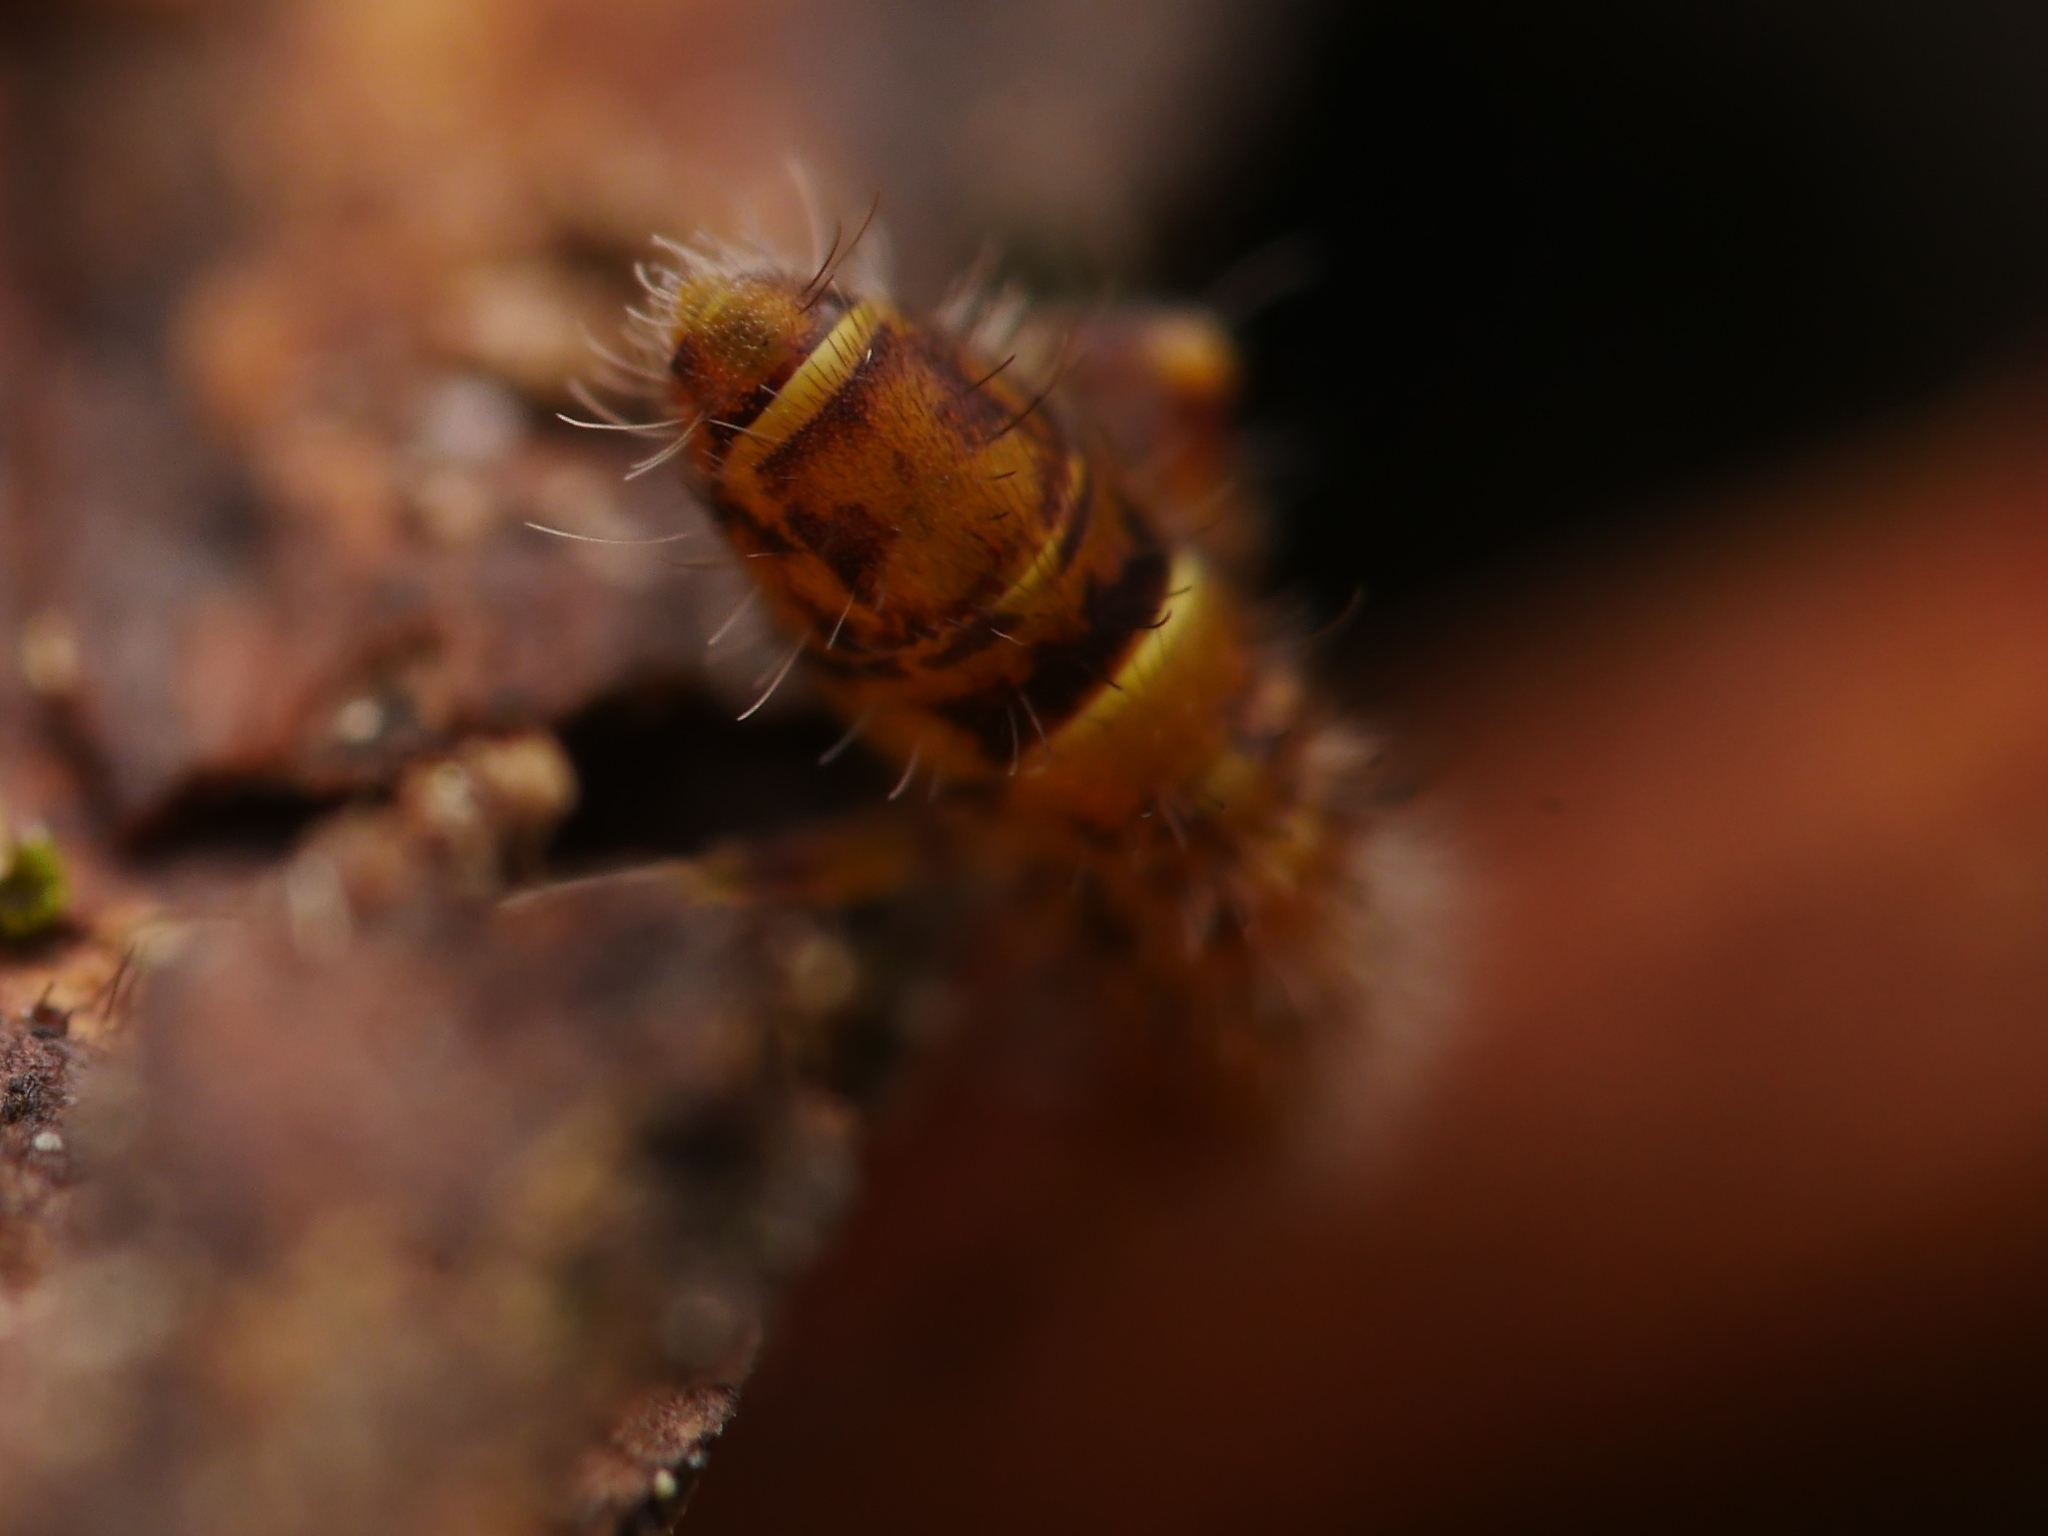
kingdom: Animalia
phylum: Arthropoda
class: Collembola
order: Entomobryomorpha
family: Orchesellidae
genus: Orchesella
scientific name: Orchesella cincta
